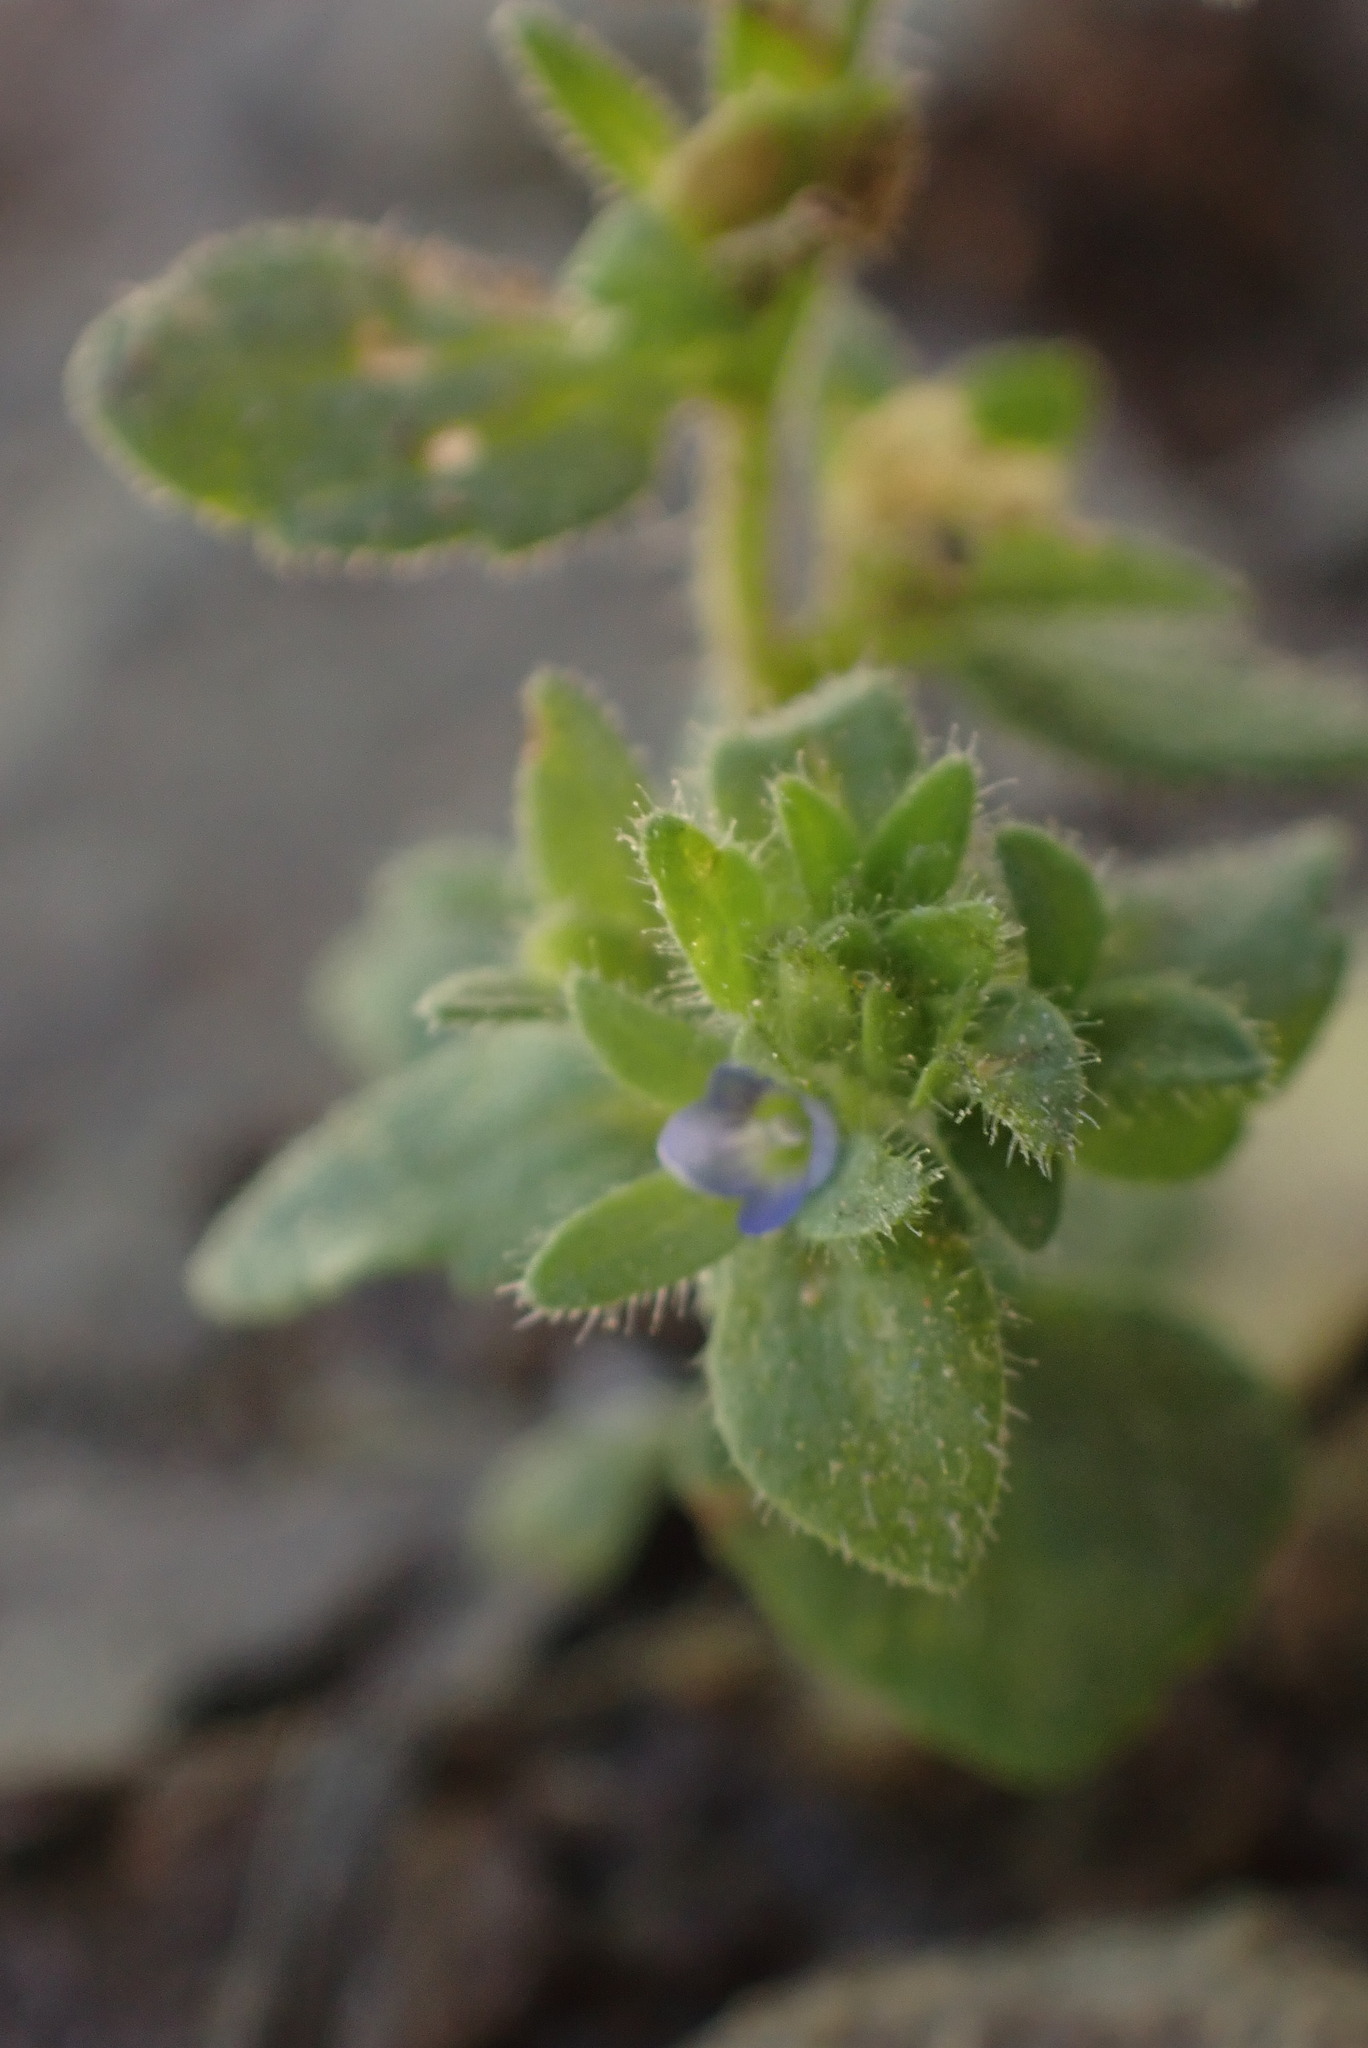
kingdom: Plantae
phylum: Tracheophyta
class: Magnoliopsida
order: Lamiales
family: Plantaginaceae
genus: Veronica
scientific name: Veronica arvensis
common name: Corn speedwell
